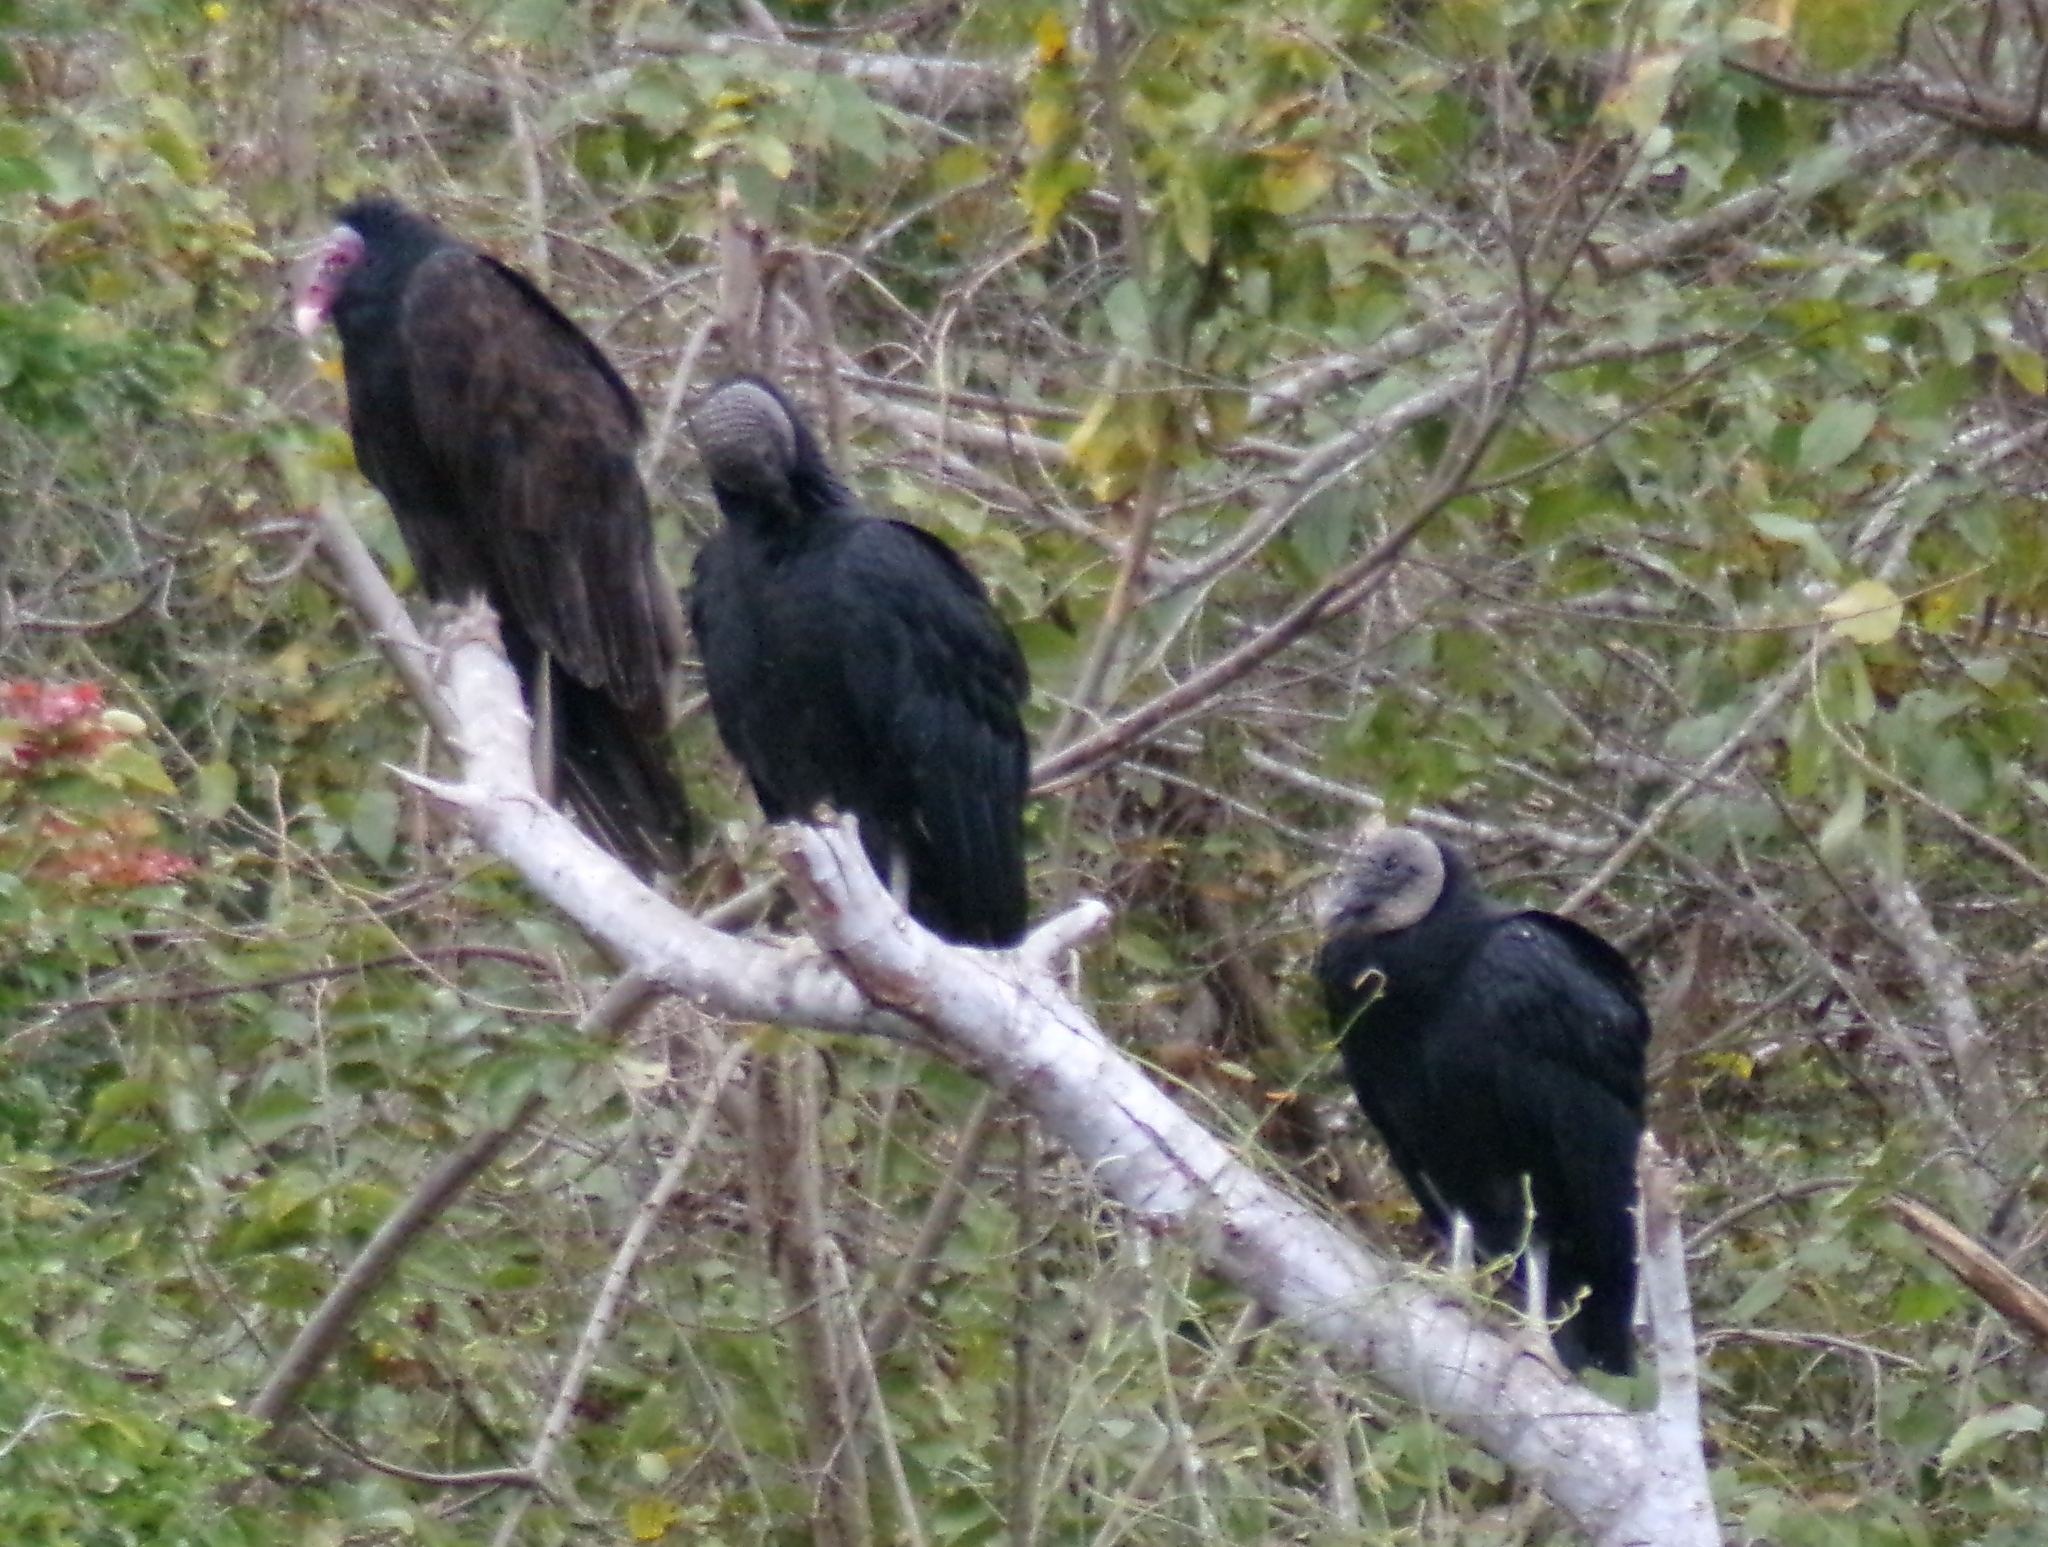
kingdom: Animalia
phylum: Chordata
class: Aves
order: Accipitriformes
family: Cathartidae
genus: Cathartes
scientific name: Cathartes aura
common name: Turkey vulture
